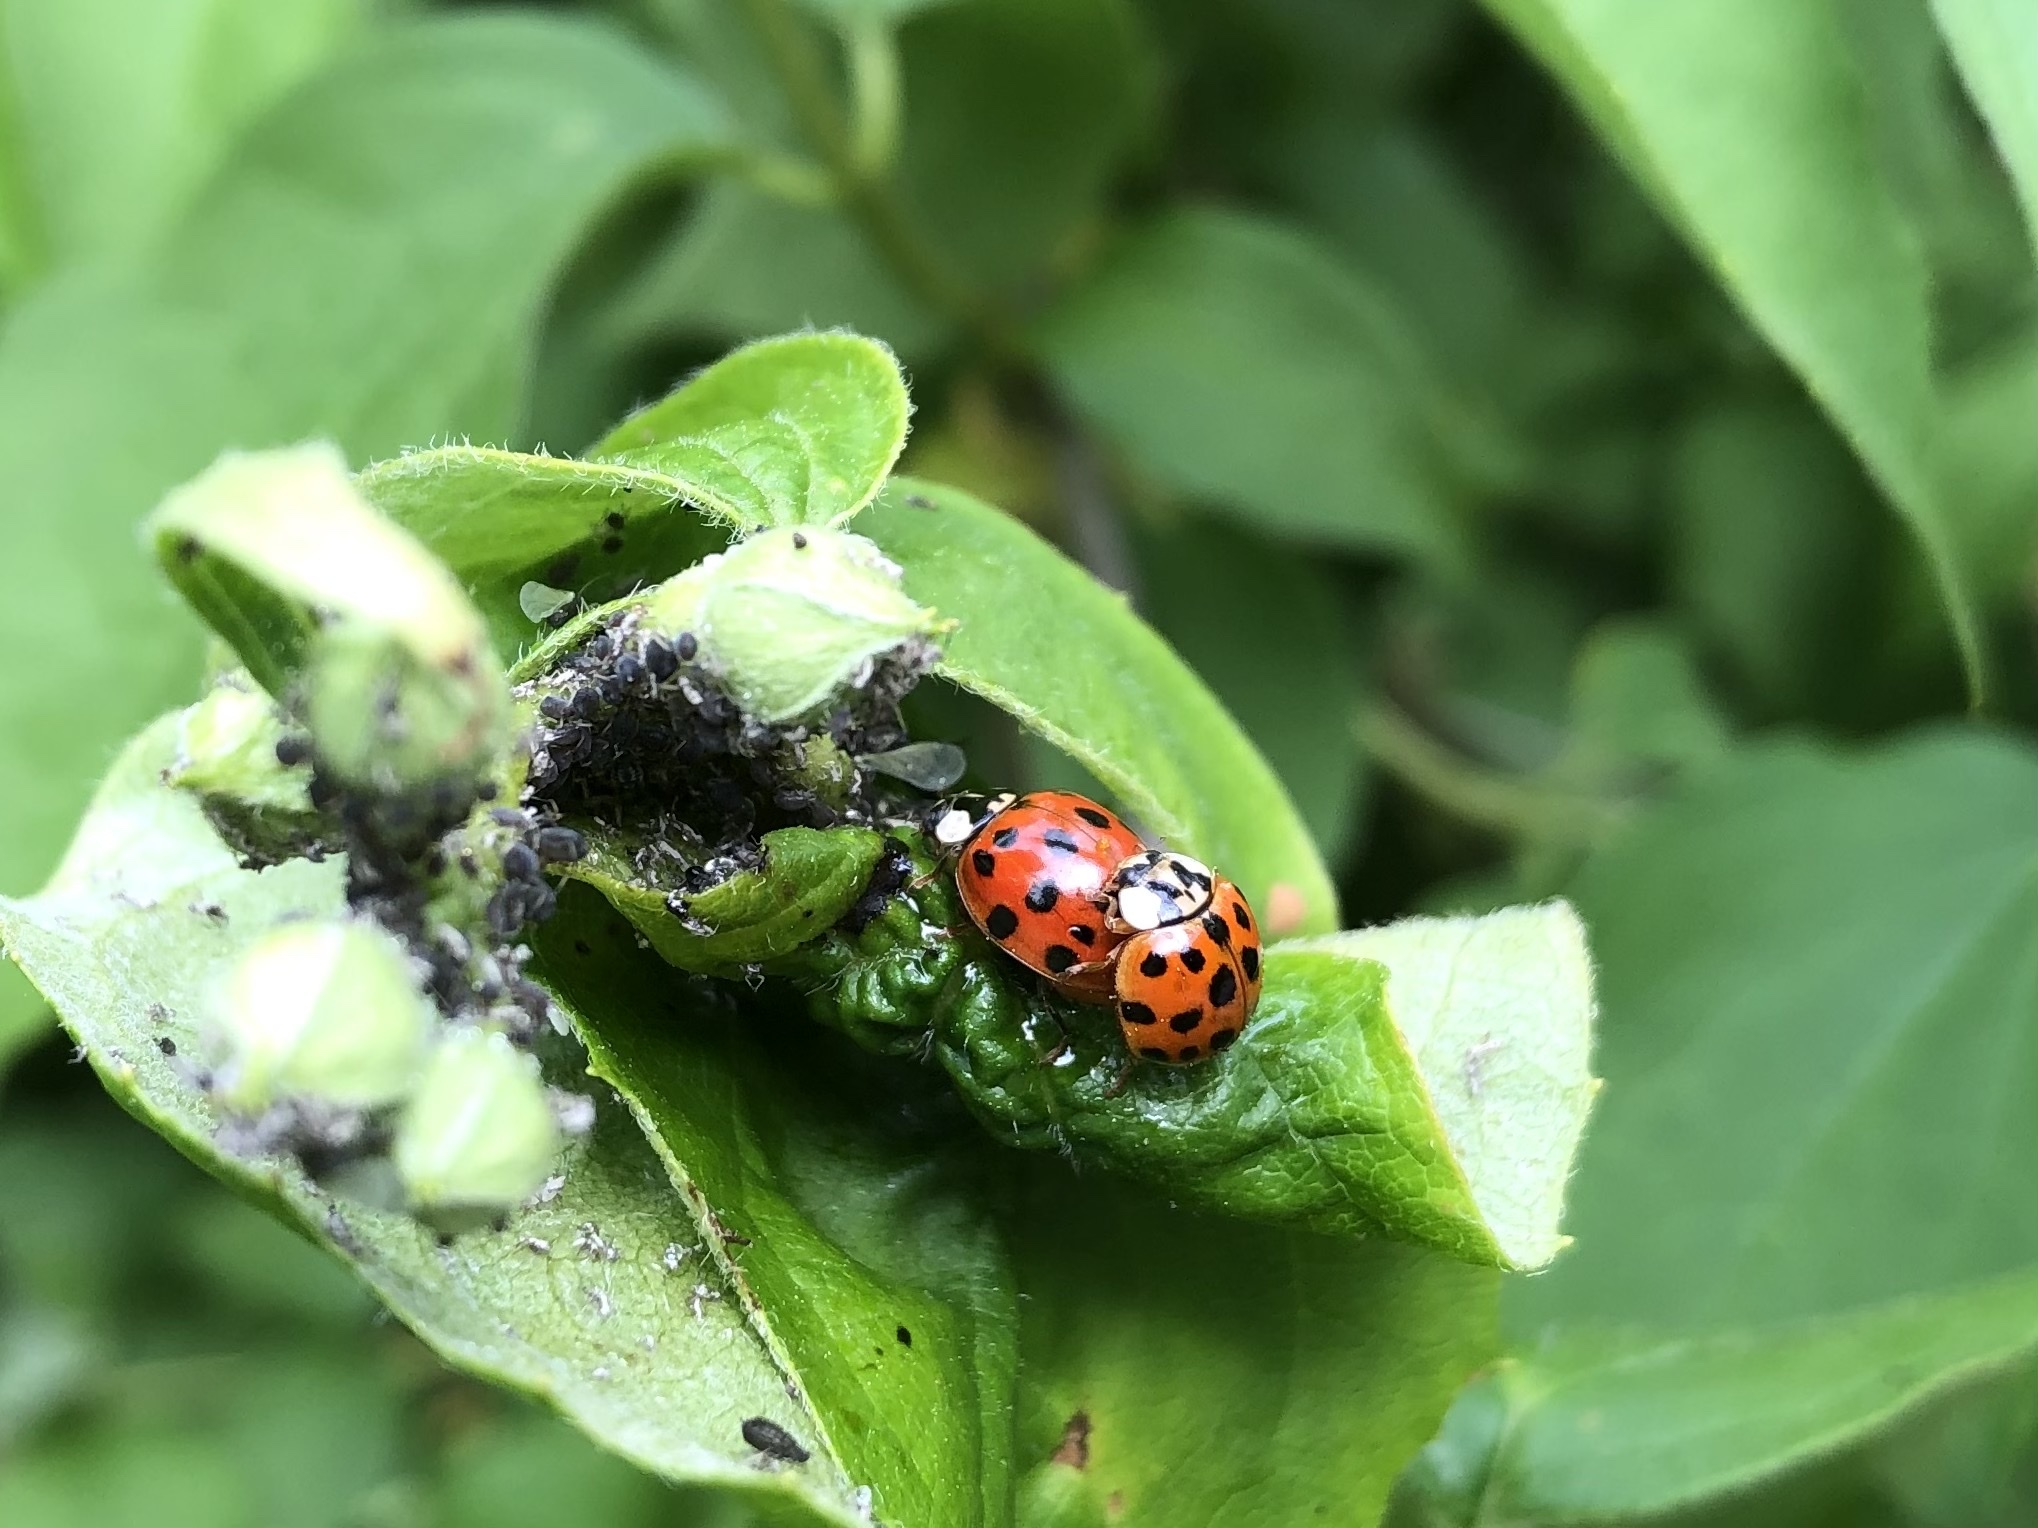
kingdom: Animalia
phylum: Arthropoda
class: Insecta
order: Coleoptera
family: Coccinellidae
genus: Harmonia
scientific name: Harmonia axyridis
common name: Harlequin ladybird
